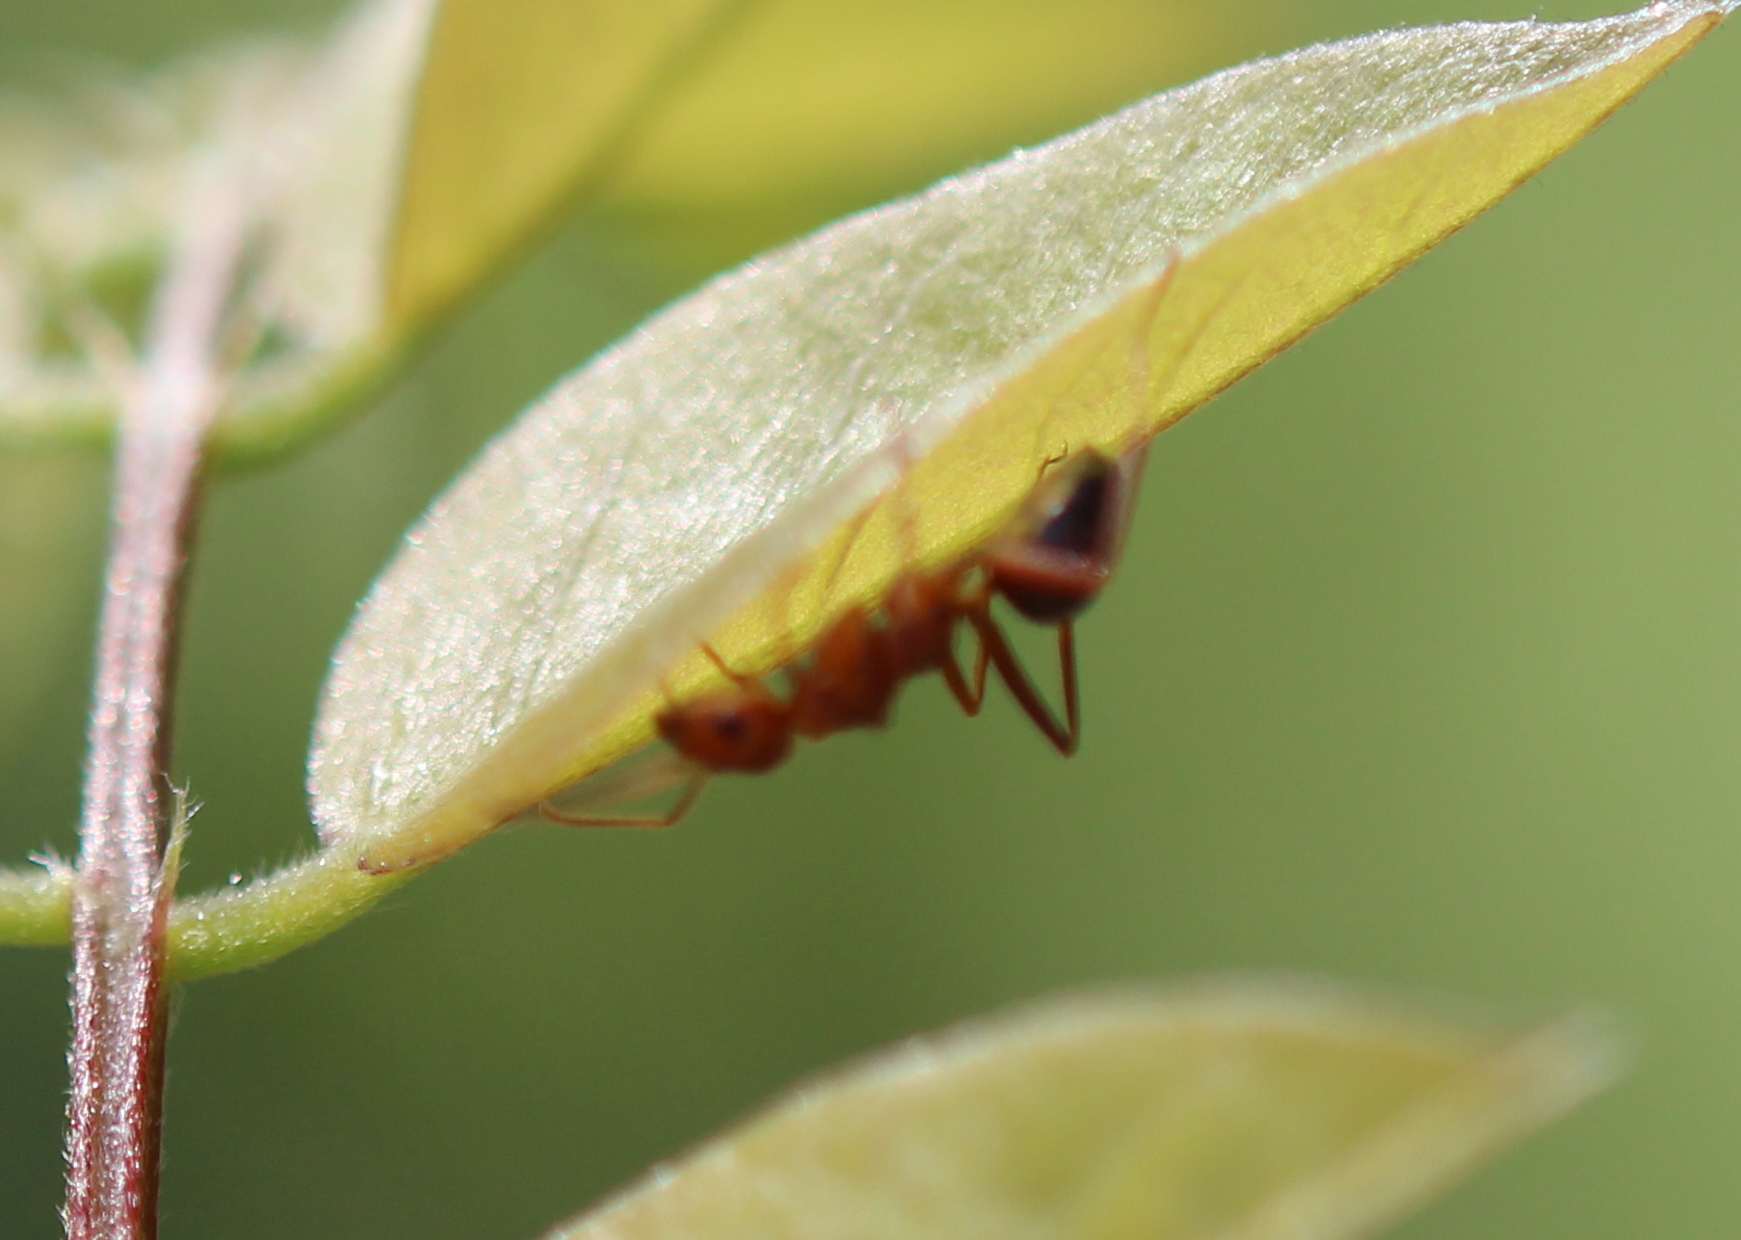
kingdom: Animalia
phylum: Arthropoda
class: Insecta
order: Hymenoptera
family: Formicidae
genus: Formica
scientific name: Formica
